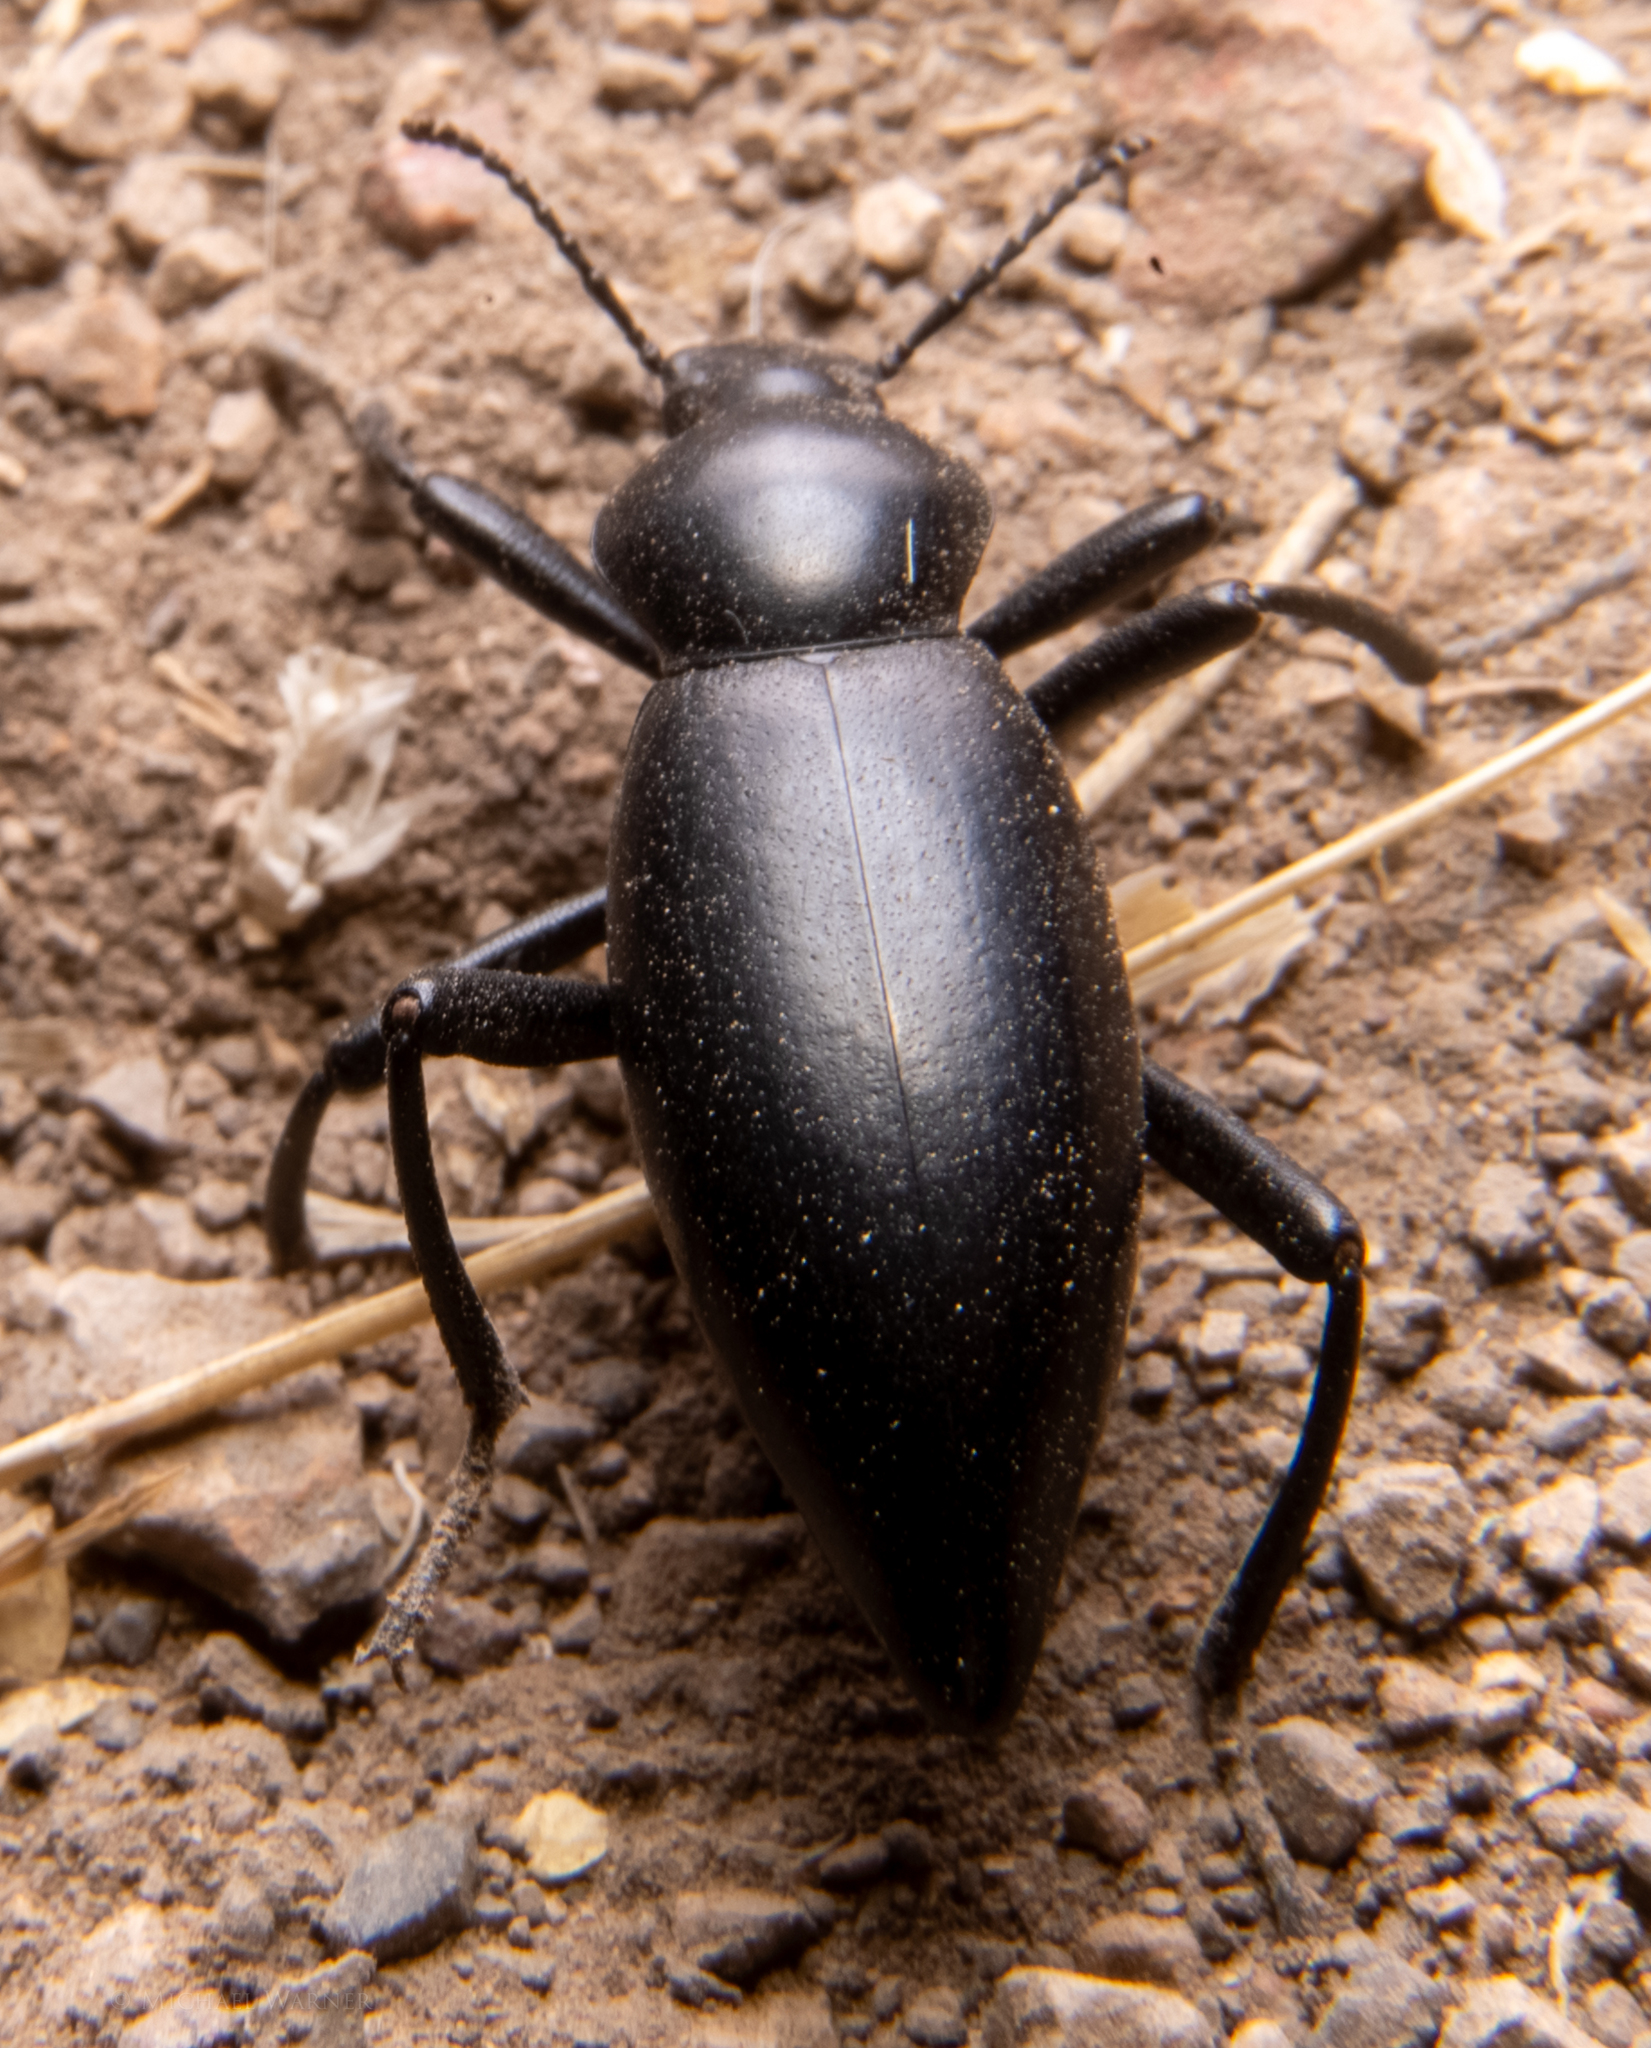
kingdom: Animalia
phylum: Arthropoda
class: Insecta
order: Coleoptera
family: Tenebrionidae
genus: Eleodes
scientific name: Eleodes dentipes
